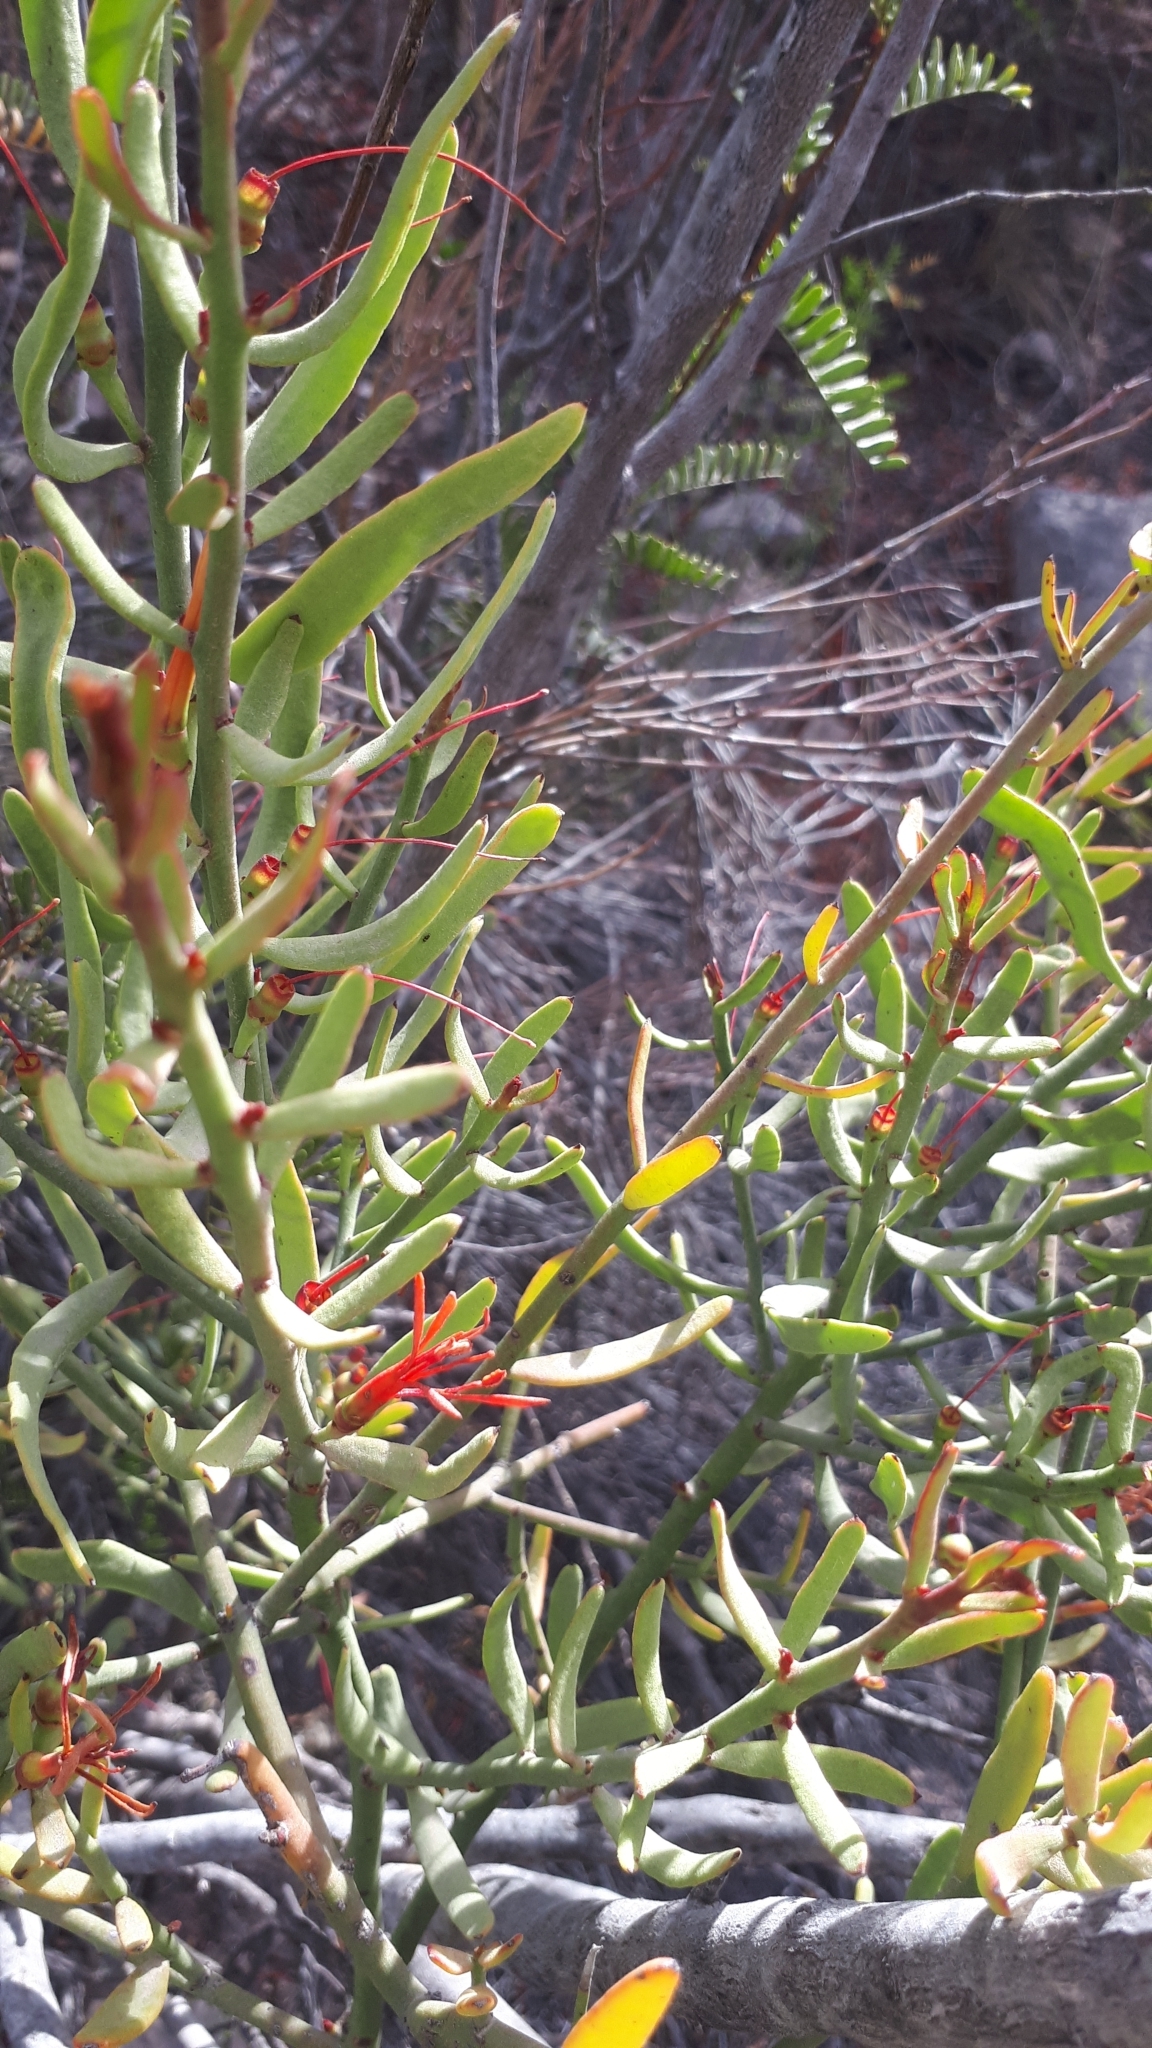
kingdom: Plantae
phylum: Tracheophyta
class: Magnoliopsida
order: Santalales
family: Loranthaceae
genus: Ligaria
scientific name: Ligaria cuneifolia
